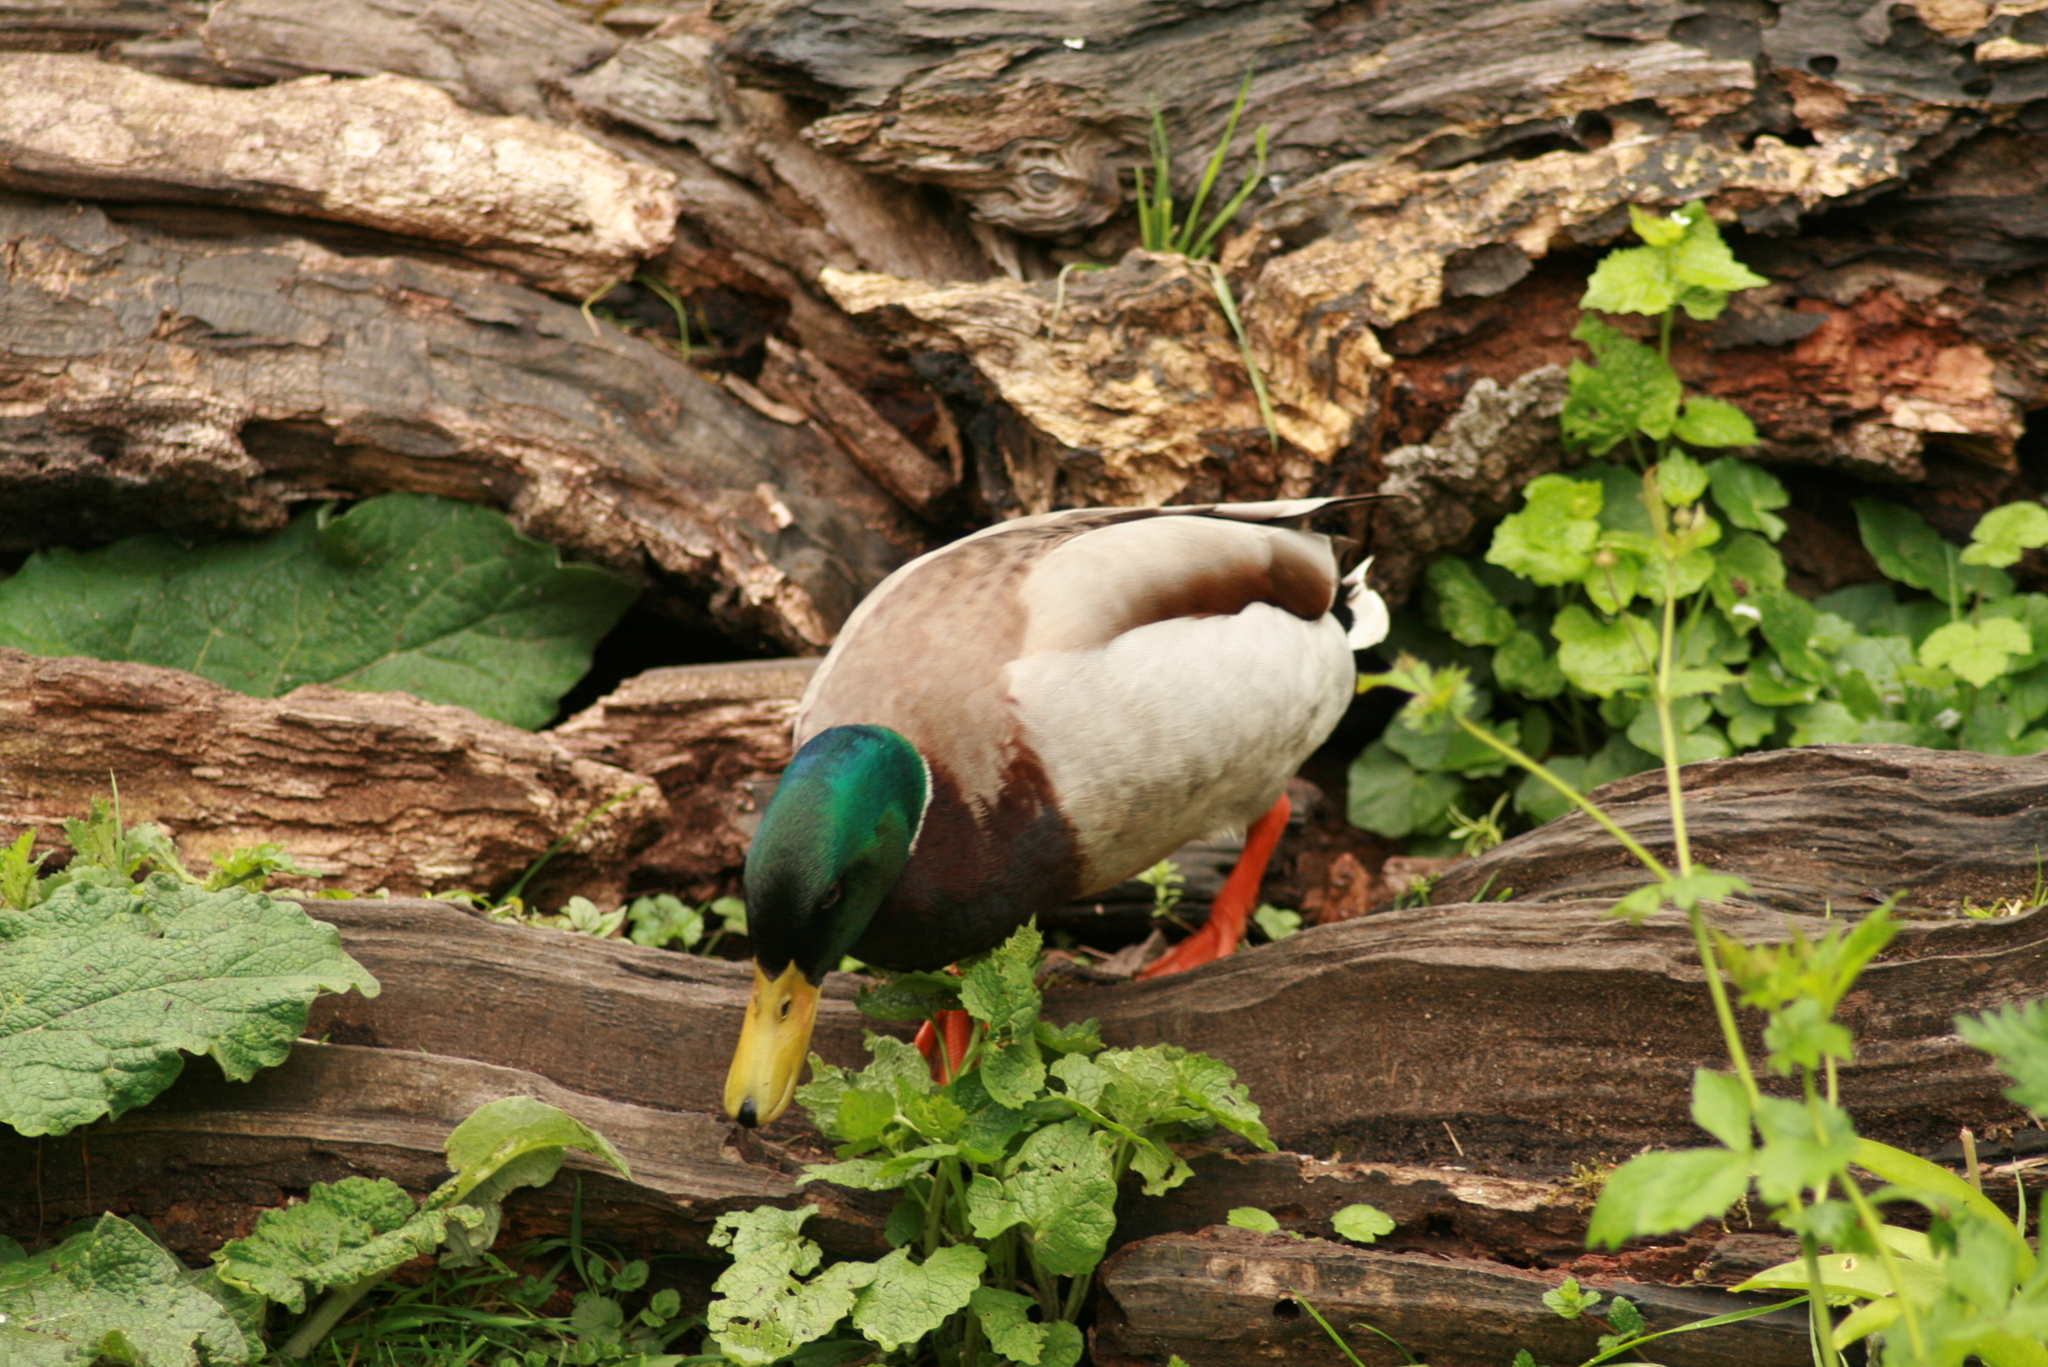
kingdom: Animalia
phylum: Chordata
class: Aves
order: Anseriformes
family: Anatidae
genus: Anas
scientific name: Anas platyrhynchos
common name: Mallard
